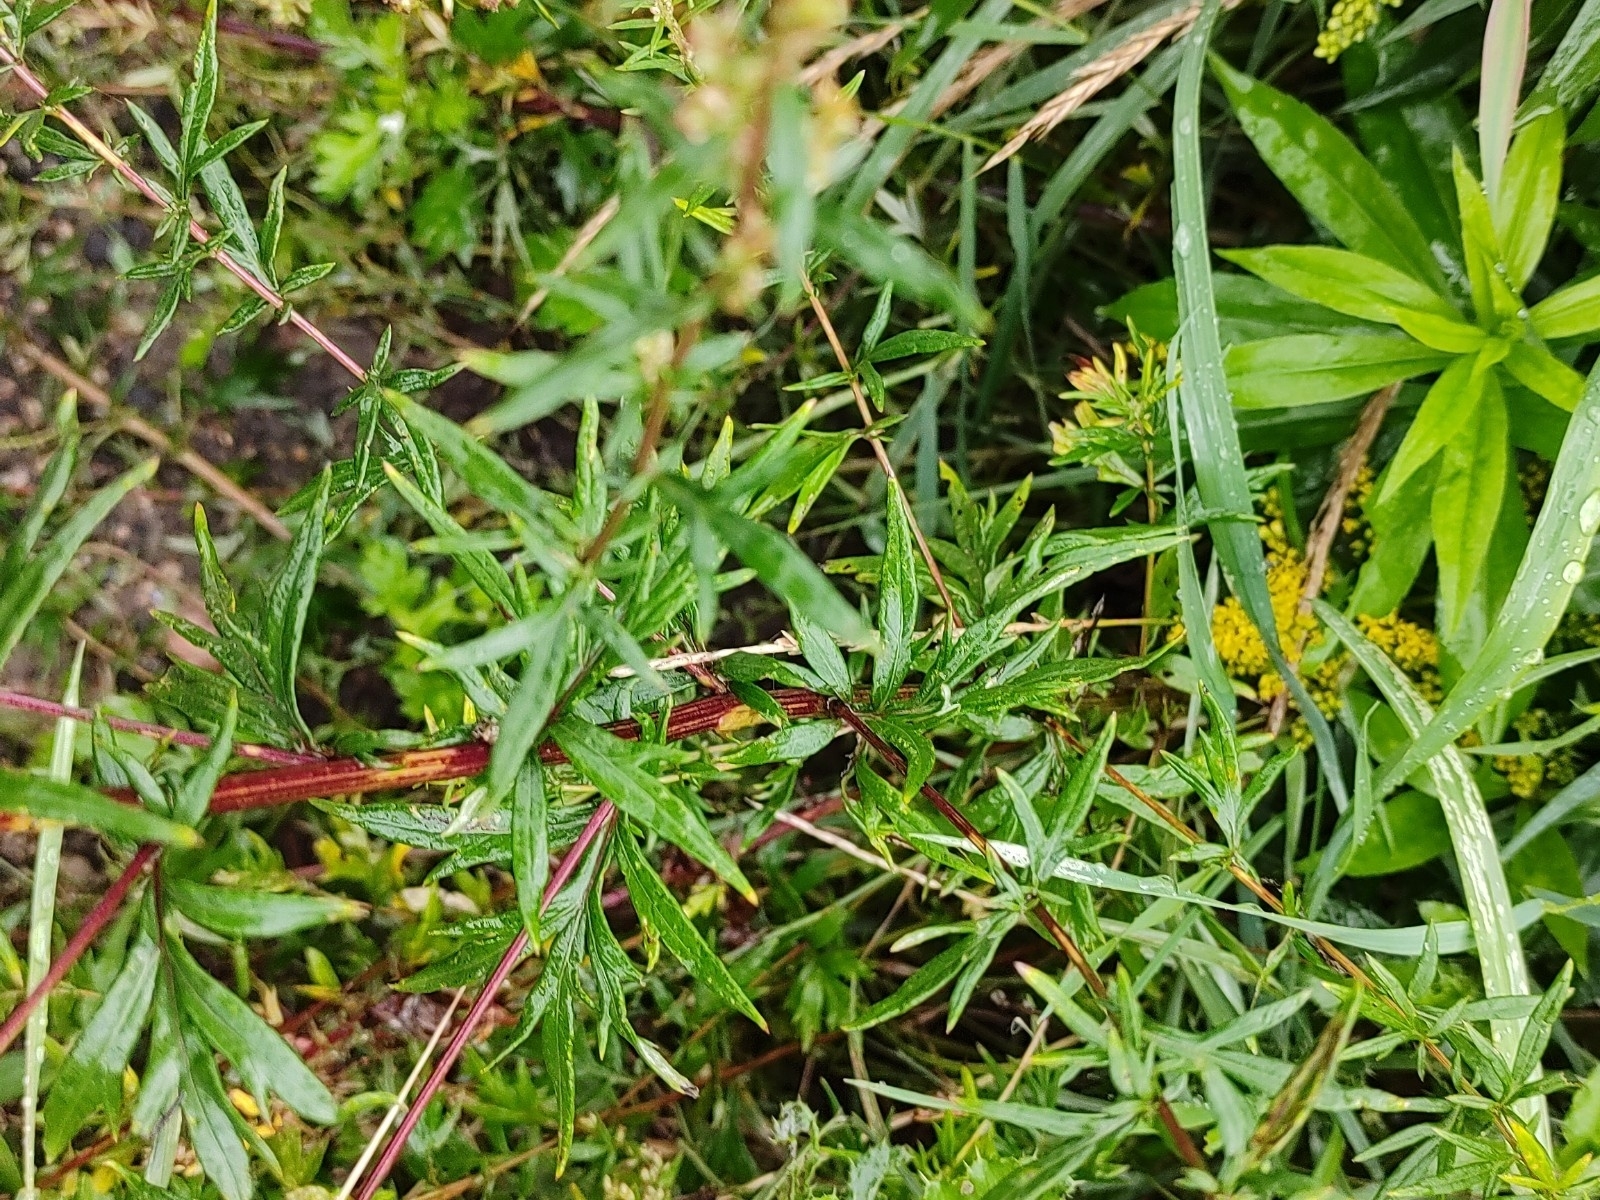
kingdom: Plantae
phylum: Tracheophyta
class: Magnoliopsida
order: Asterales
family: Asteraceae
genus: Artemisia
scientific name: Artemisia vulgaris
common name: Mugwort
